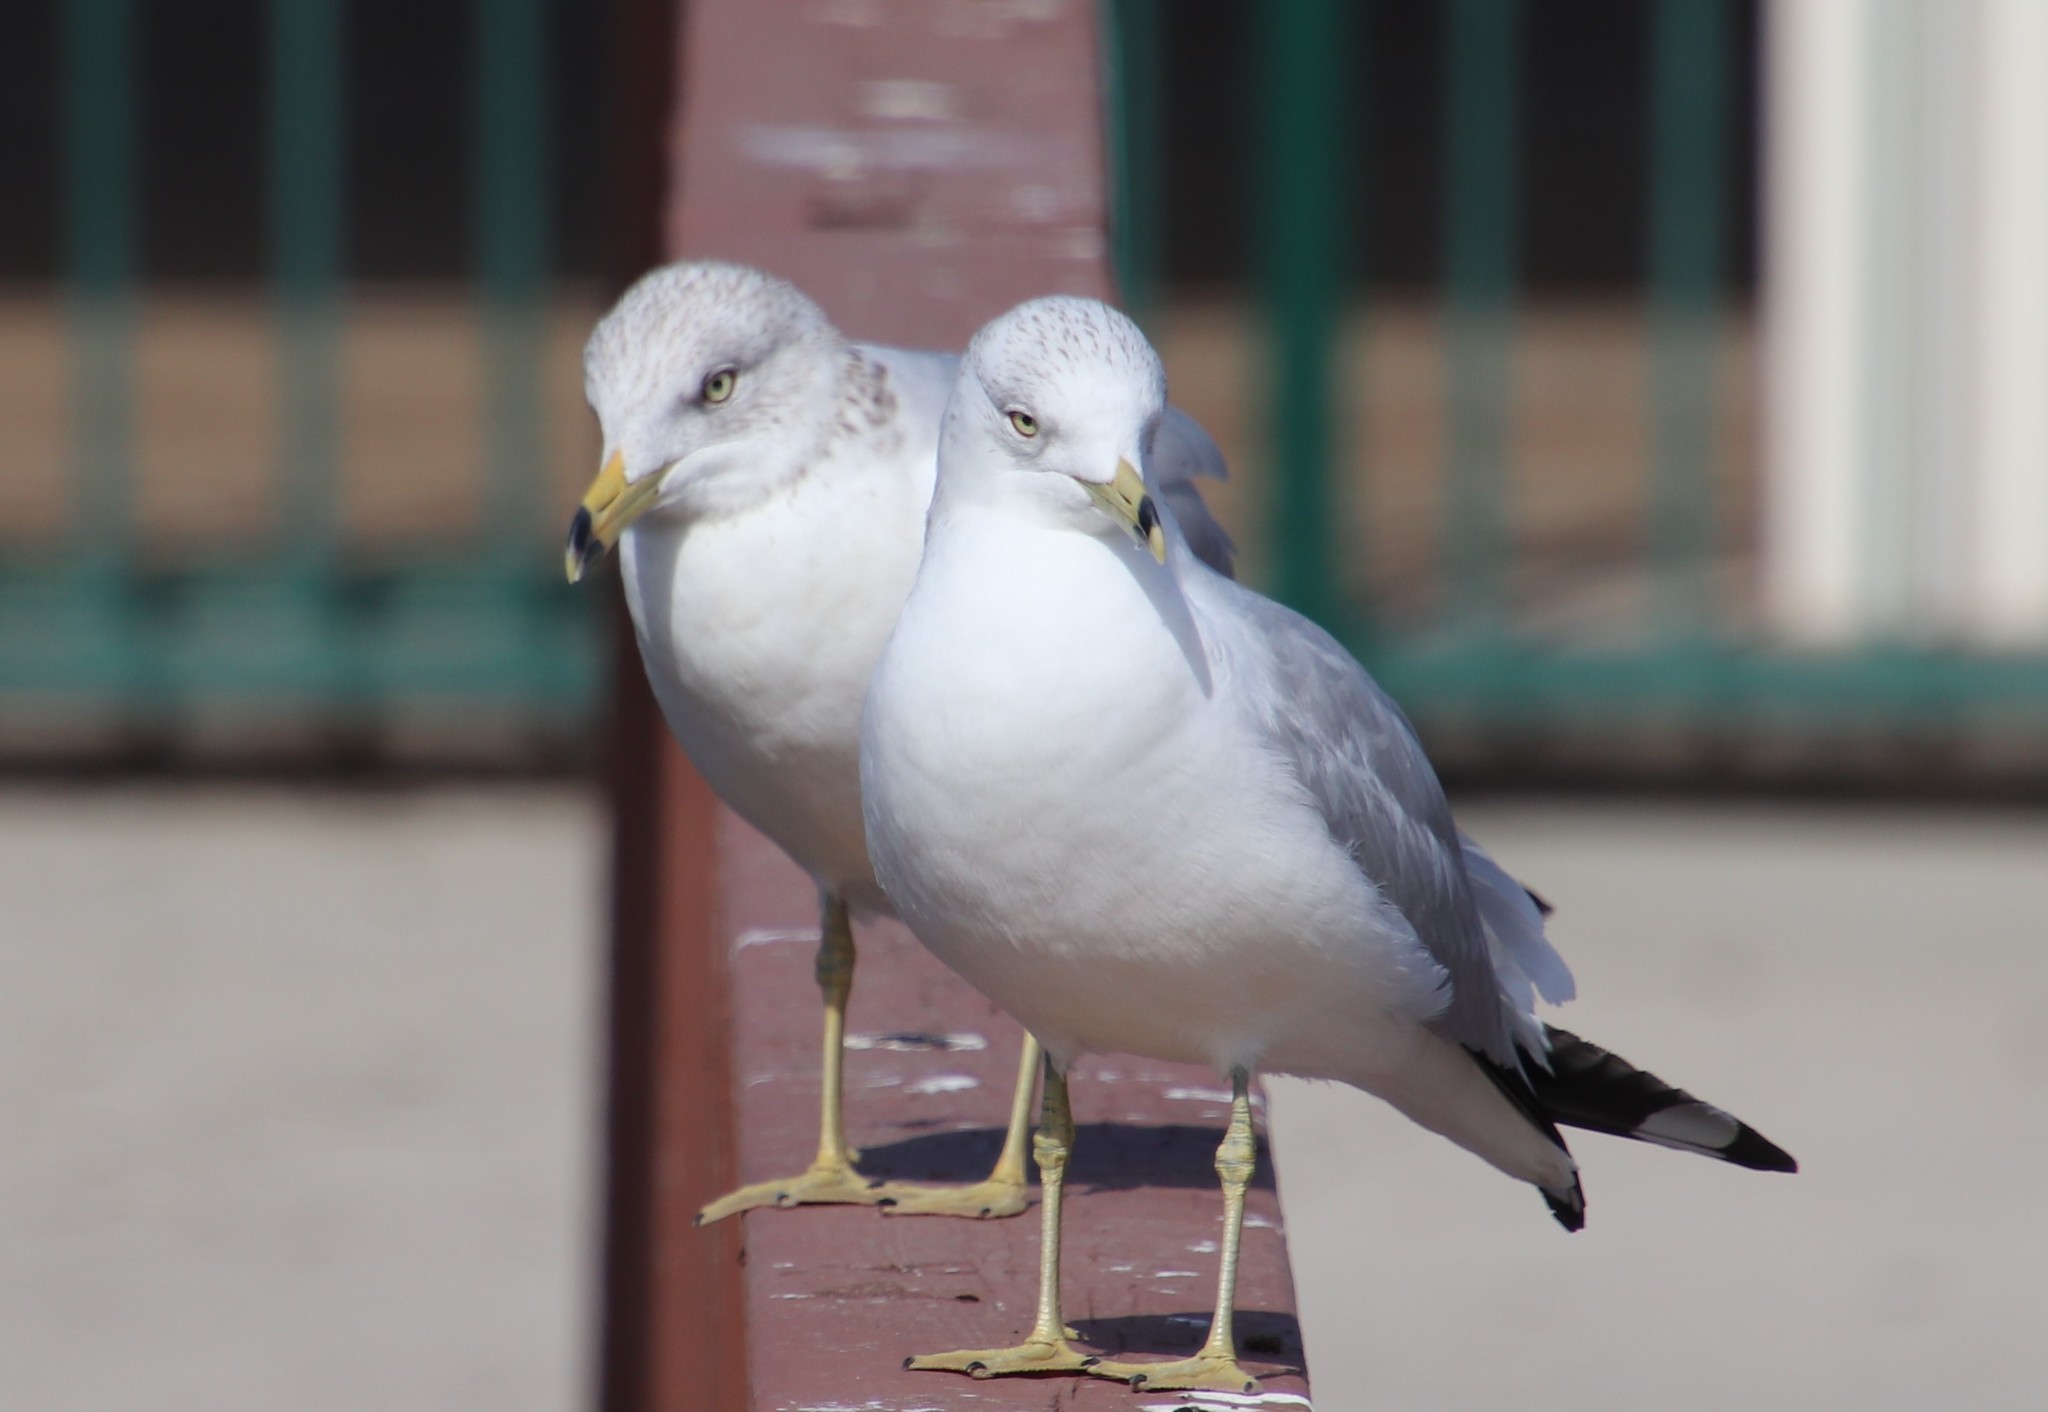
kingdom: Animalia
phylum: Chordata
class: Aves
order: Charadriiformes
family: Laridae
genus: Larus
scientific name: Larus delawarensis
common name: Ring-billed gull
